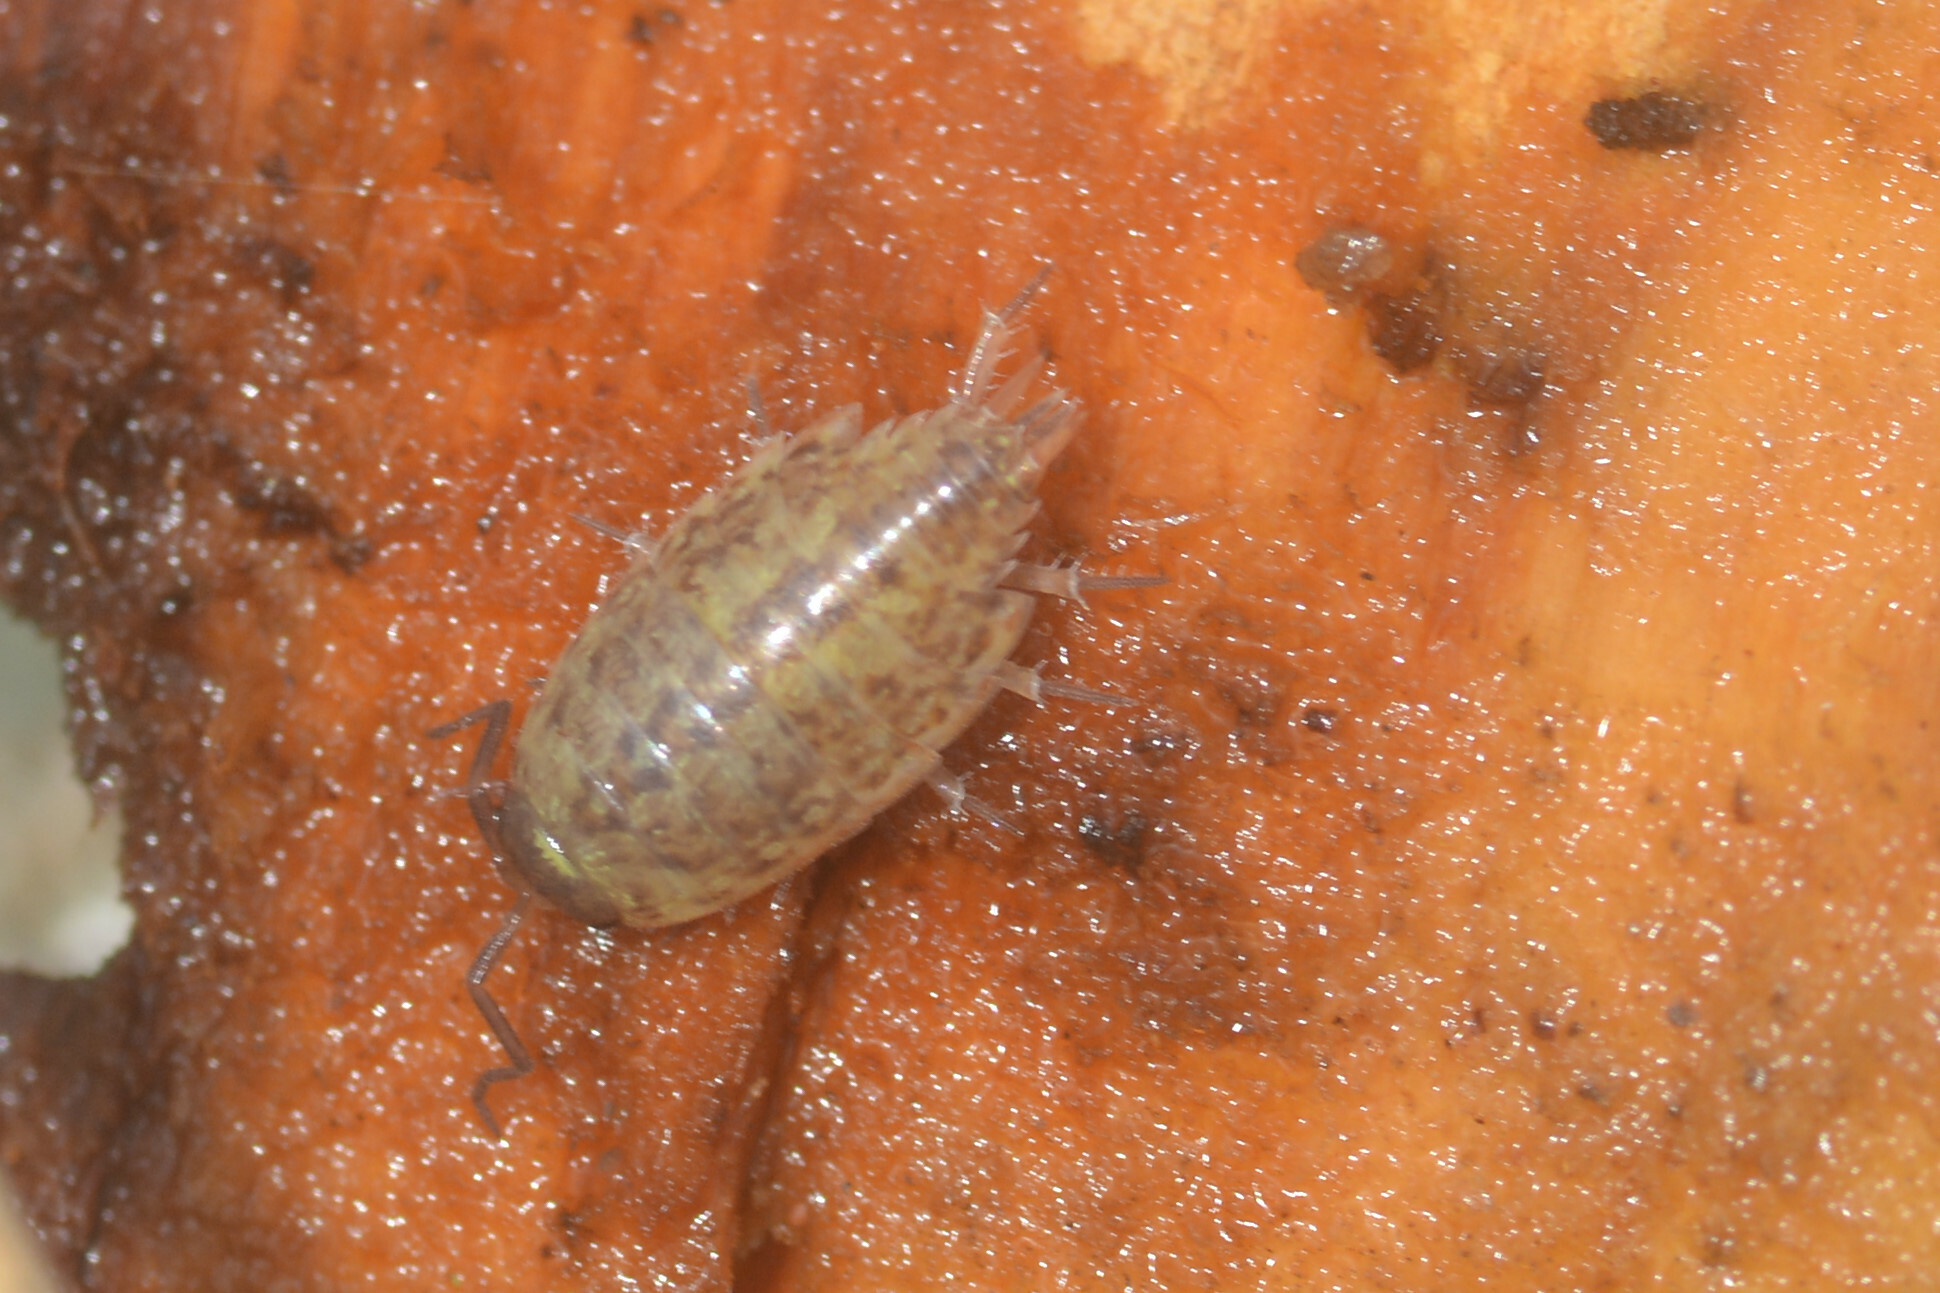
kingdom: Animalia
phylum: Arthropoda
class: Malacostraca
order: Isopoda
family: Philosciidae
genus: Philoscia
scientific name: Philoscia muscorum
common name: Common striped woodlouse
